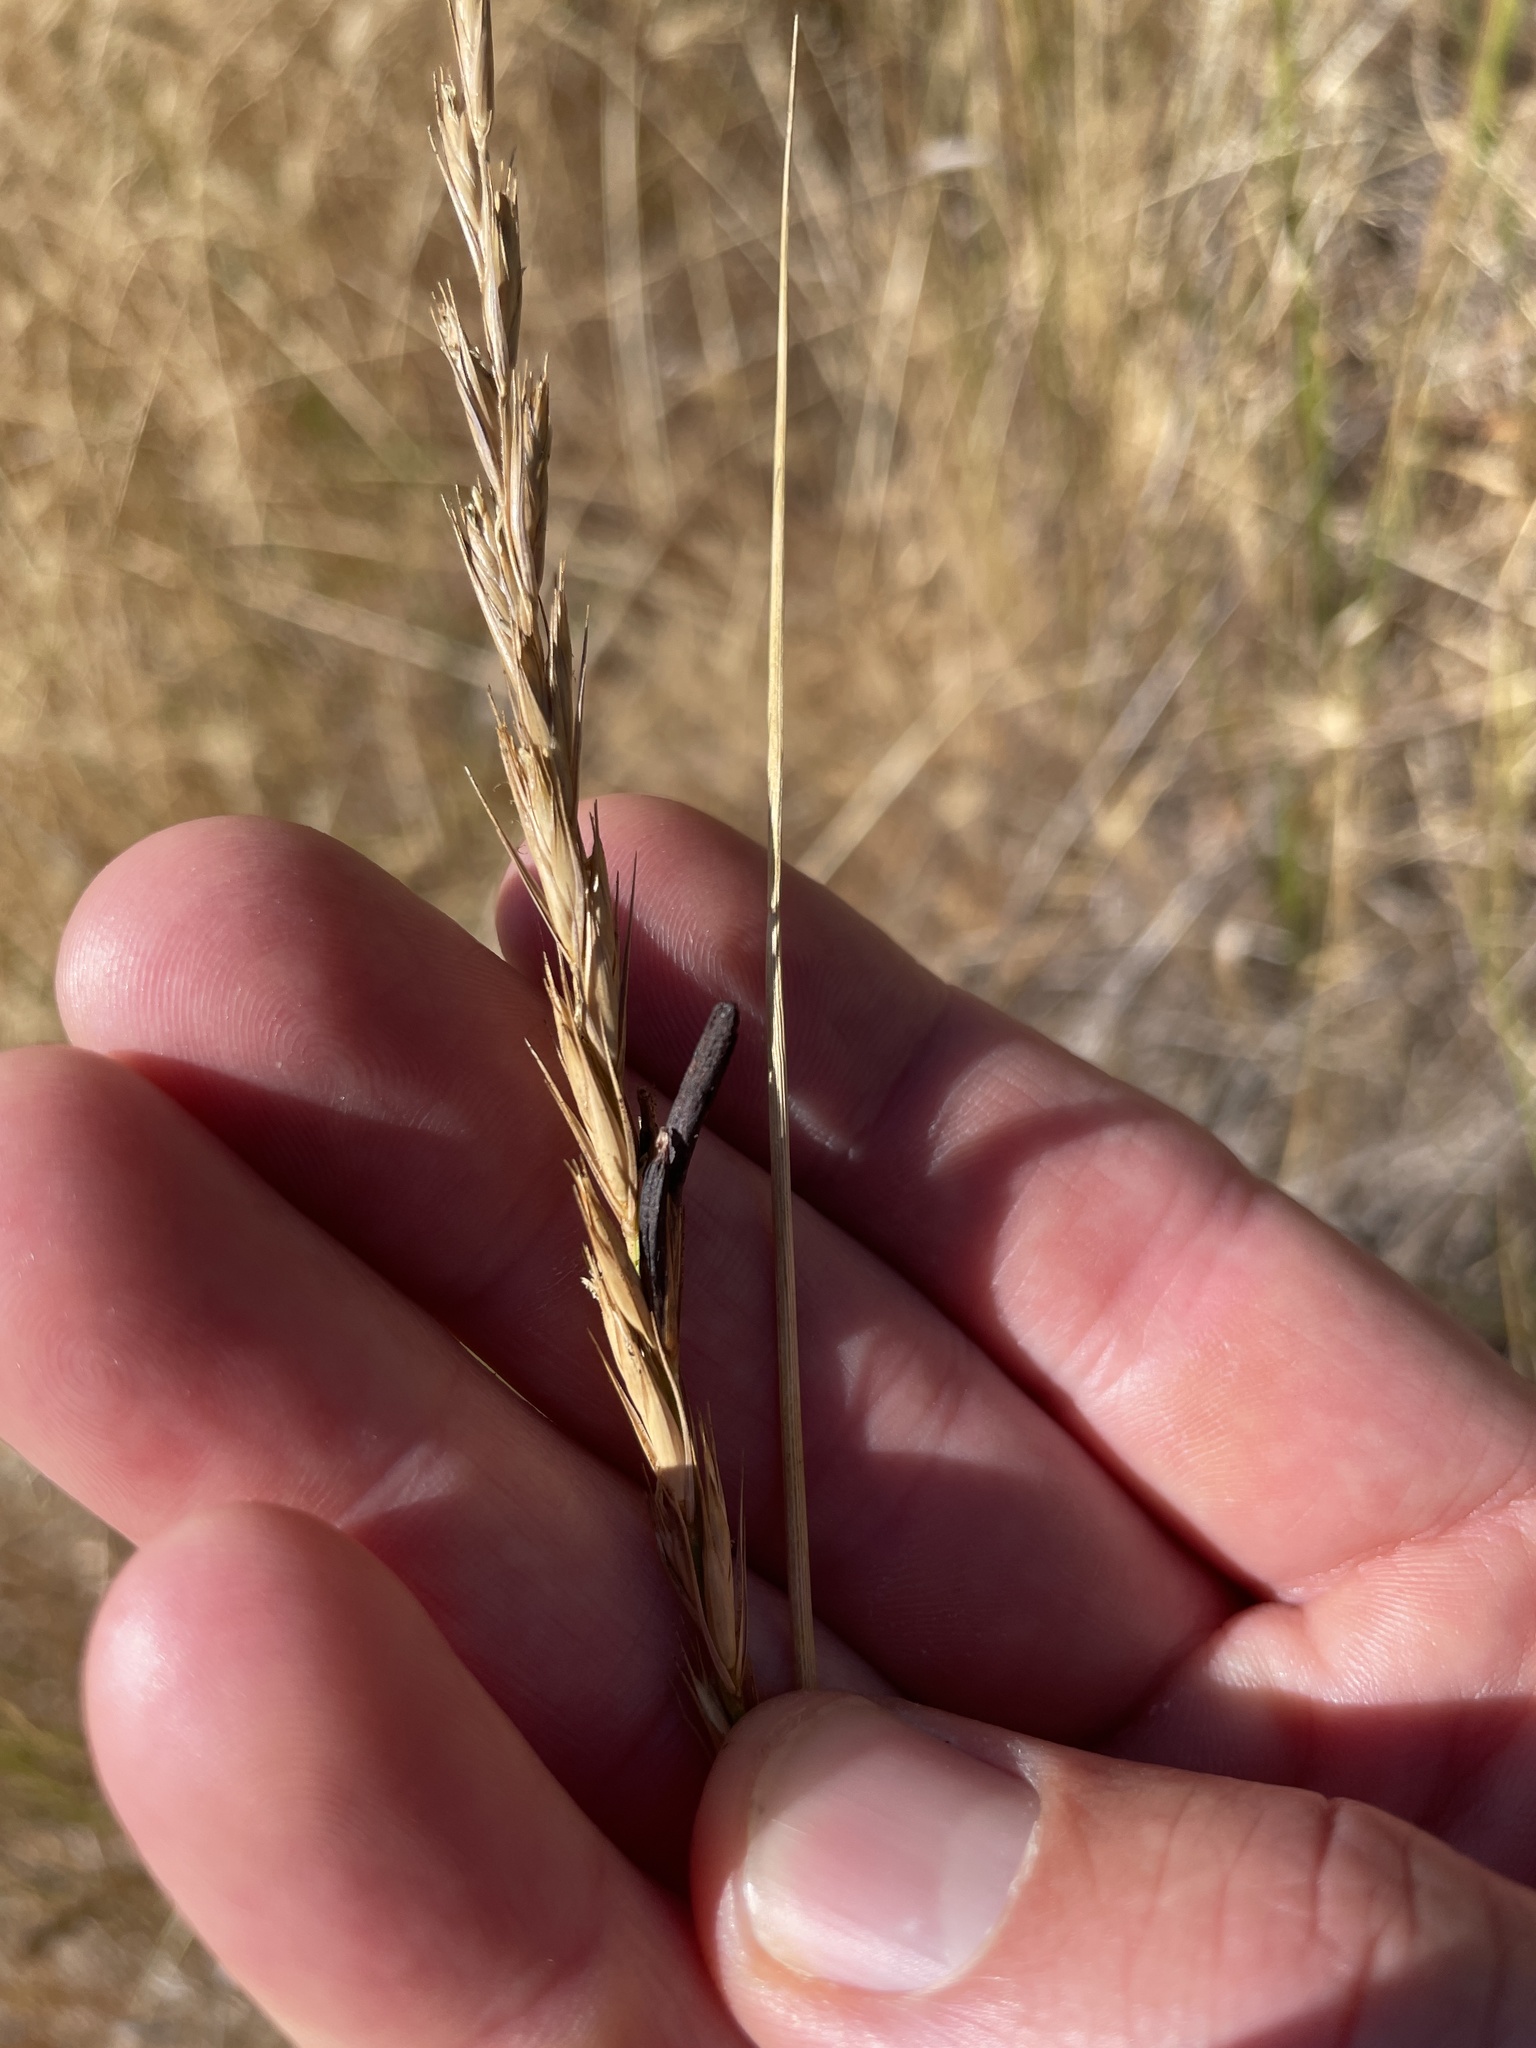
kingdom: Fungi
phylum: Ascomycota
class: Sordariomycetes
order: Hypocreales
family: Clavicipitaceae
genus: Claviceps
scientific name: Claviceps purpurea
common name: Rye ergot
